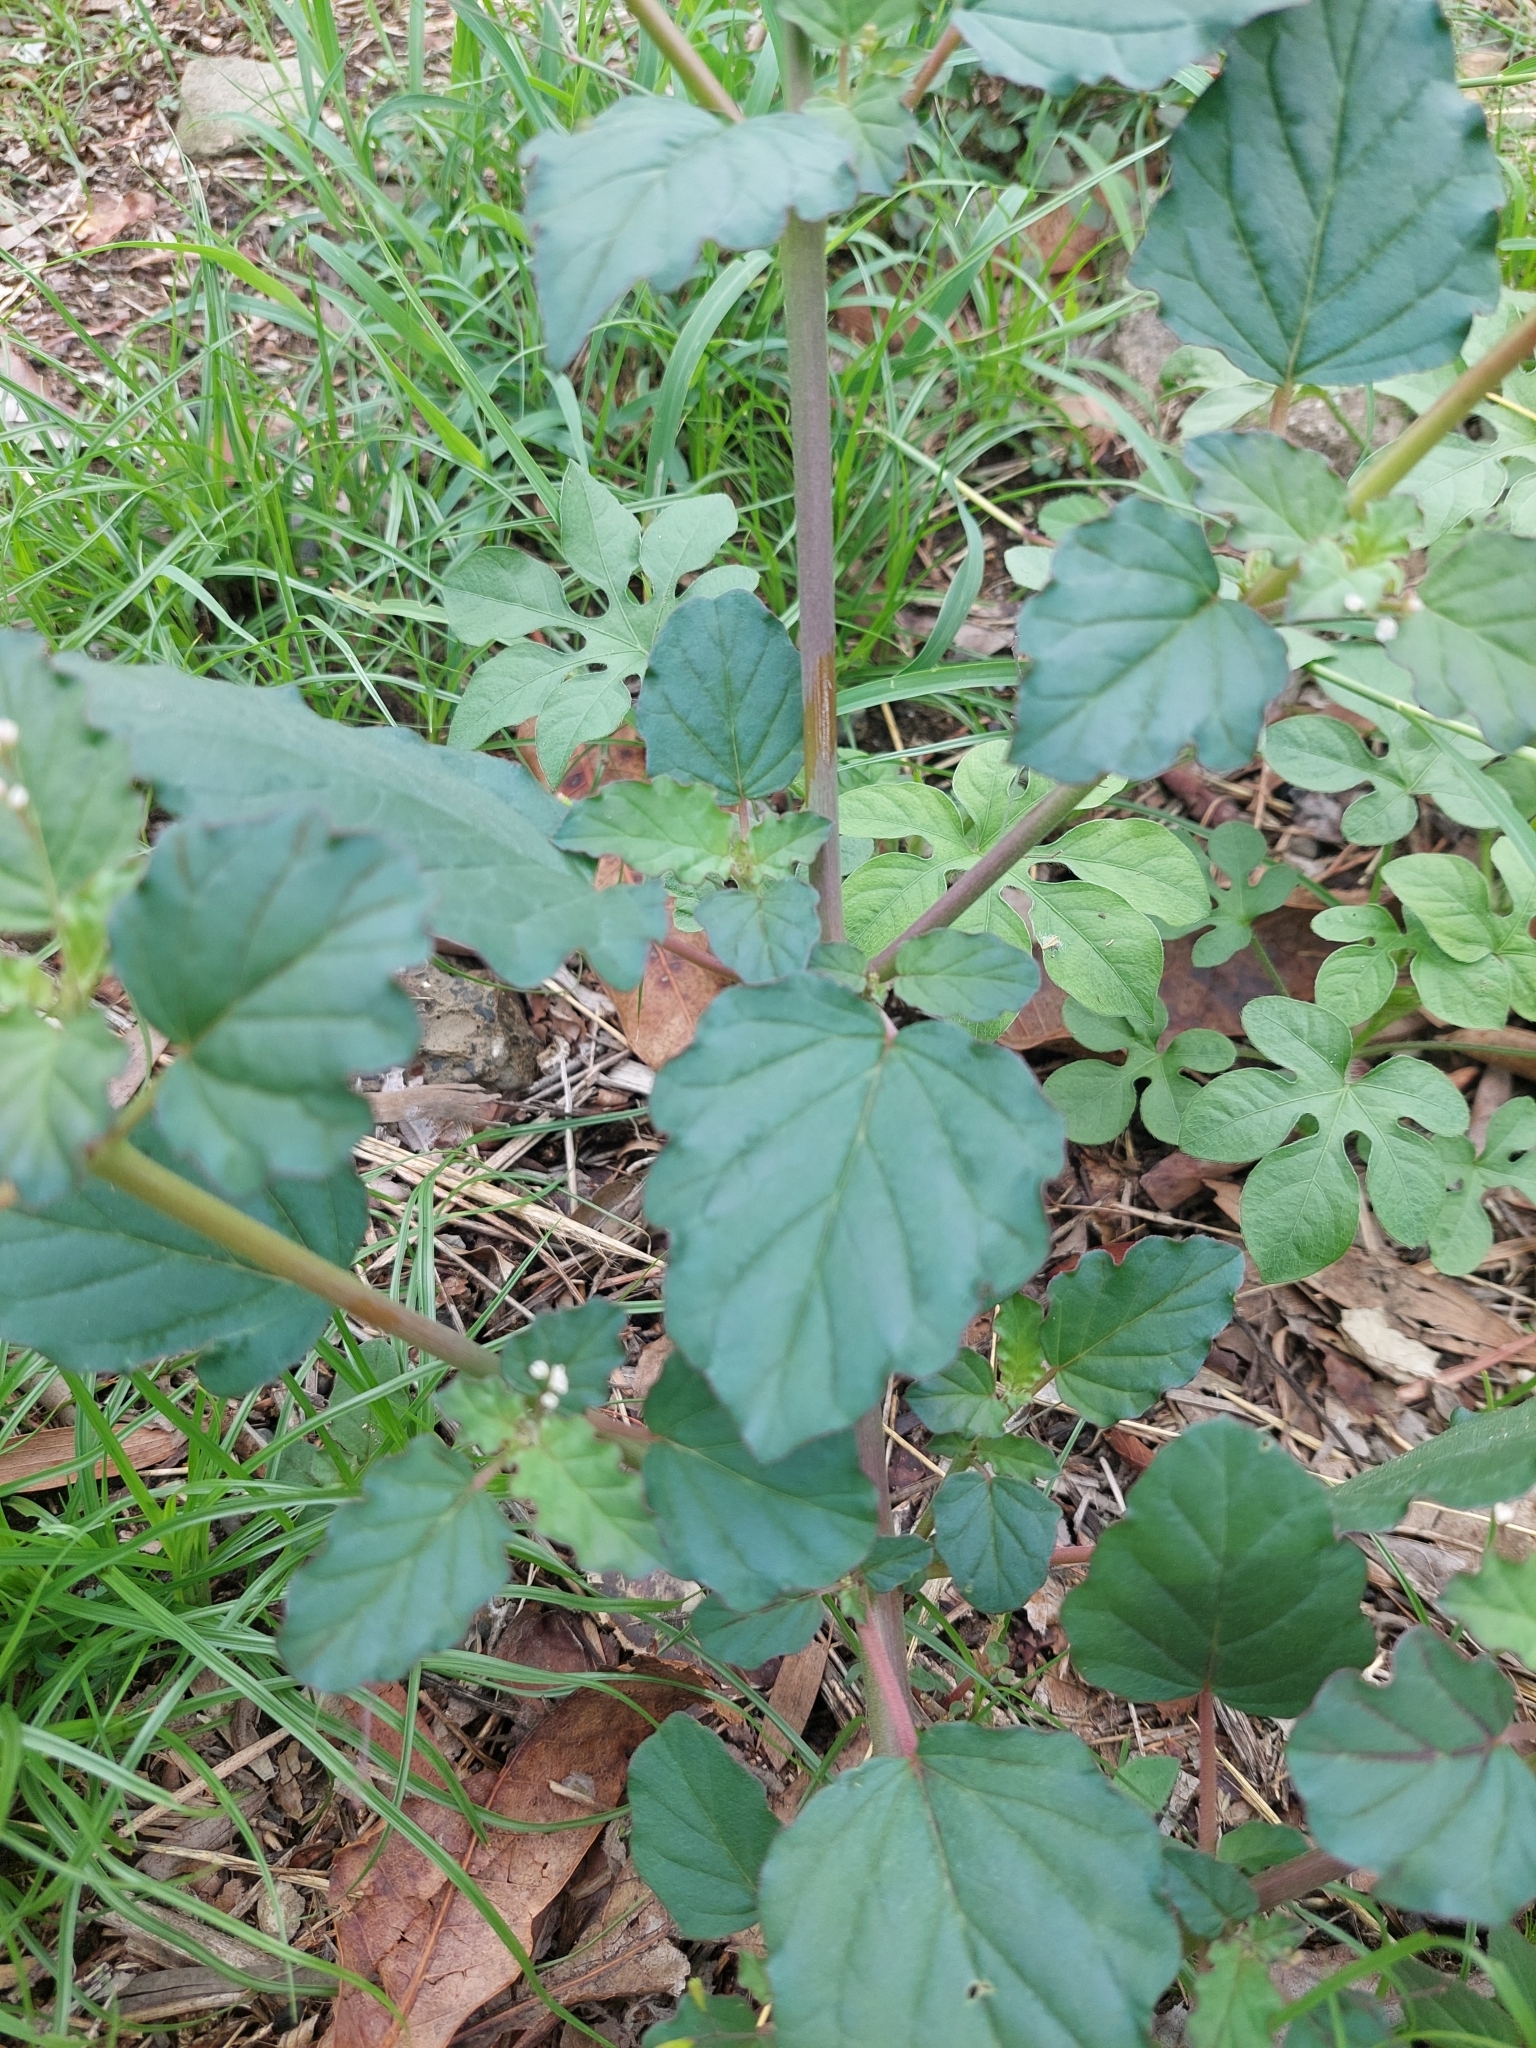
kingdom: Plantae
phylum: Tracheophyta
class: Magnoliopsida
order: Caryophyllales
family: Nyctaginaceae
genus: Boerhavia
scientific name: Boerhavia erecta
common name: Erect spiderling
